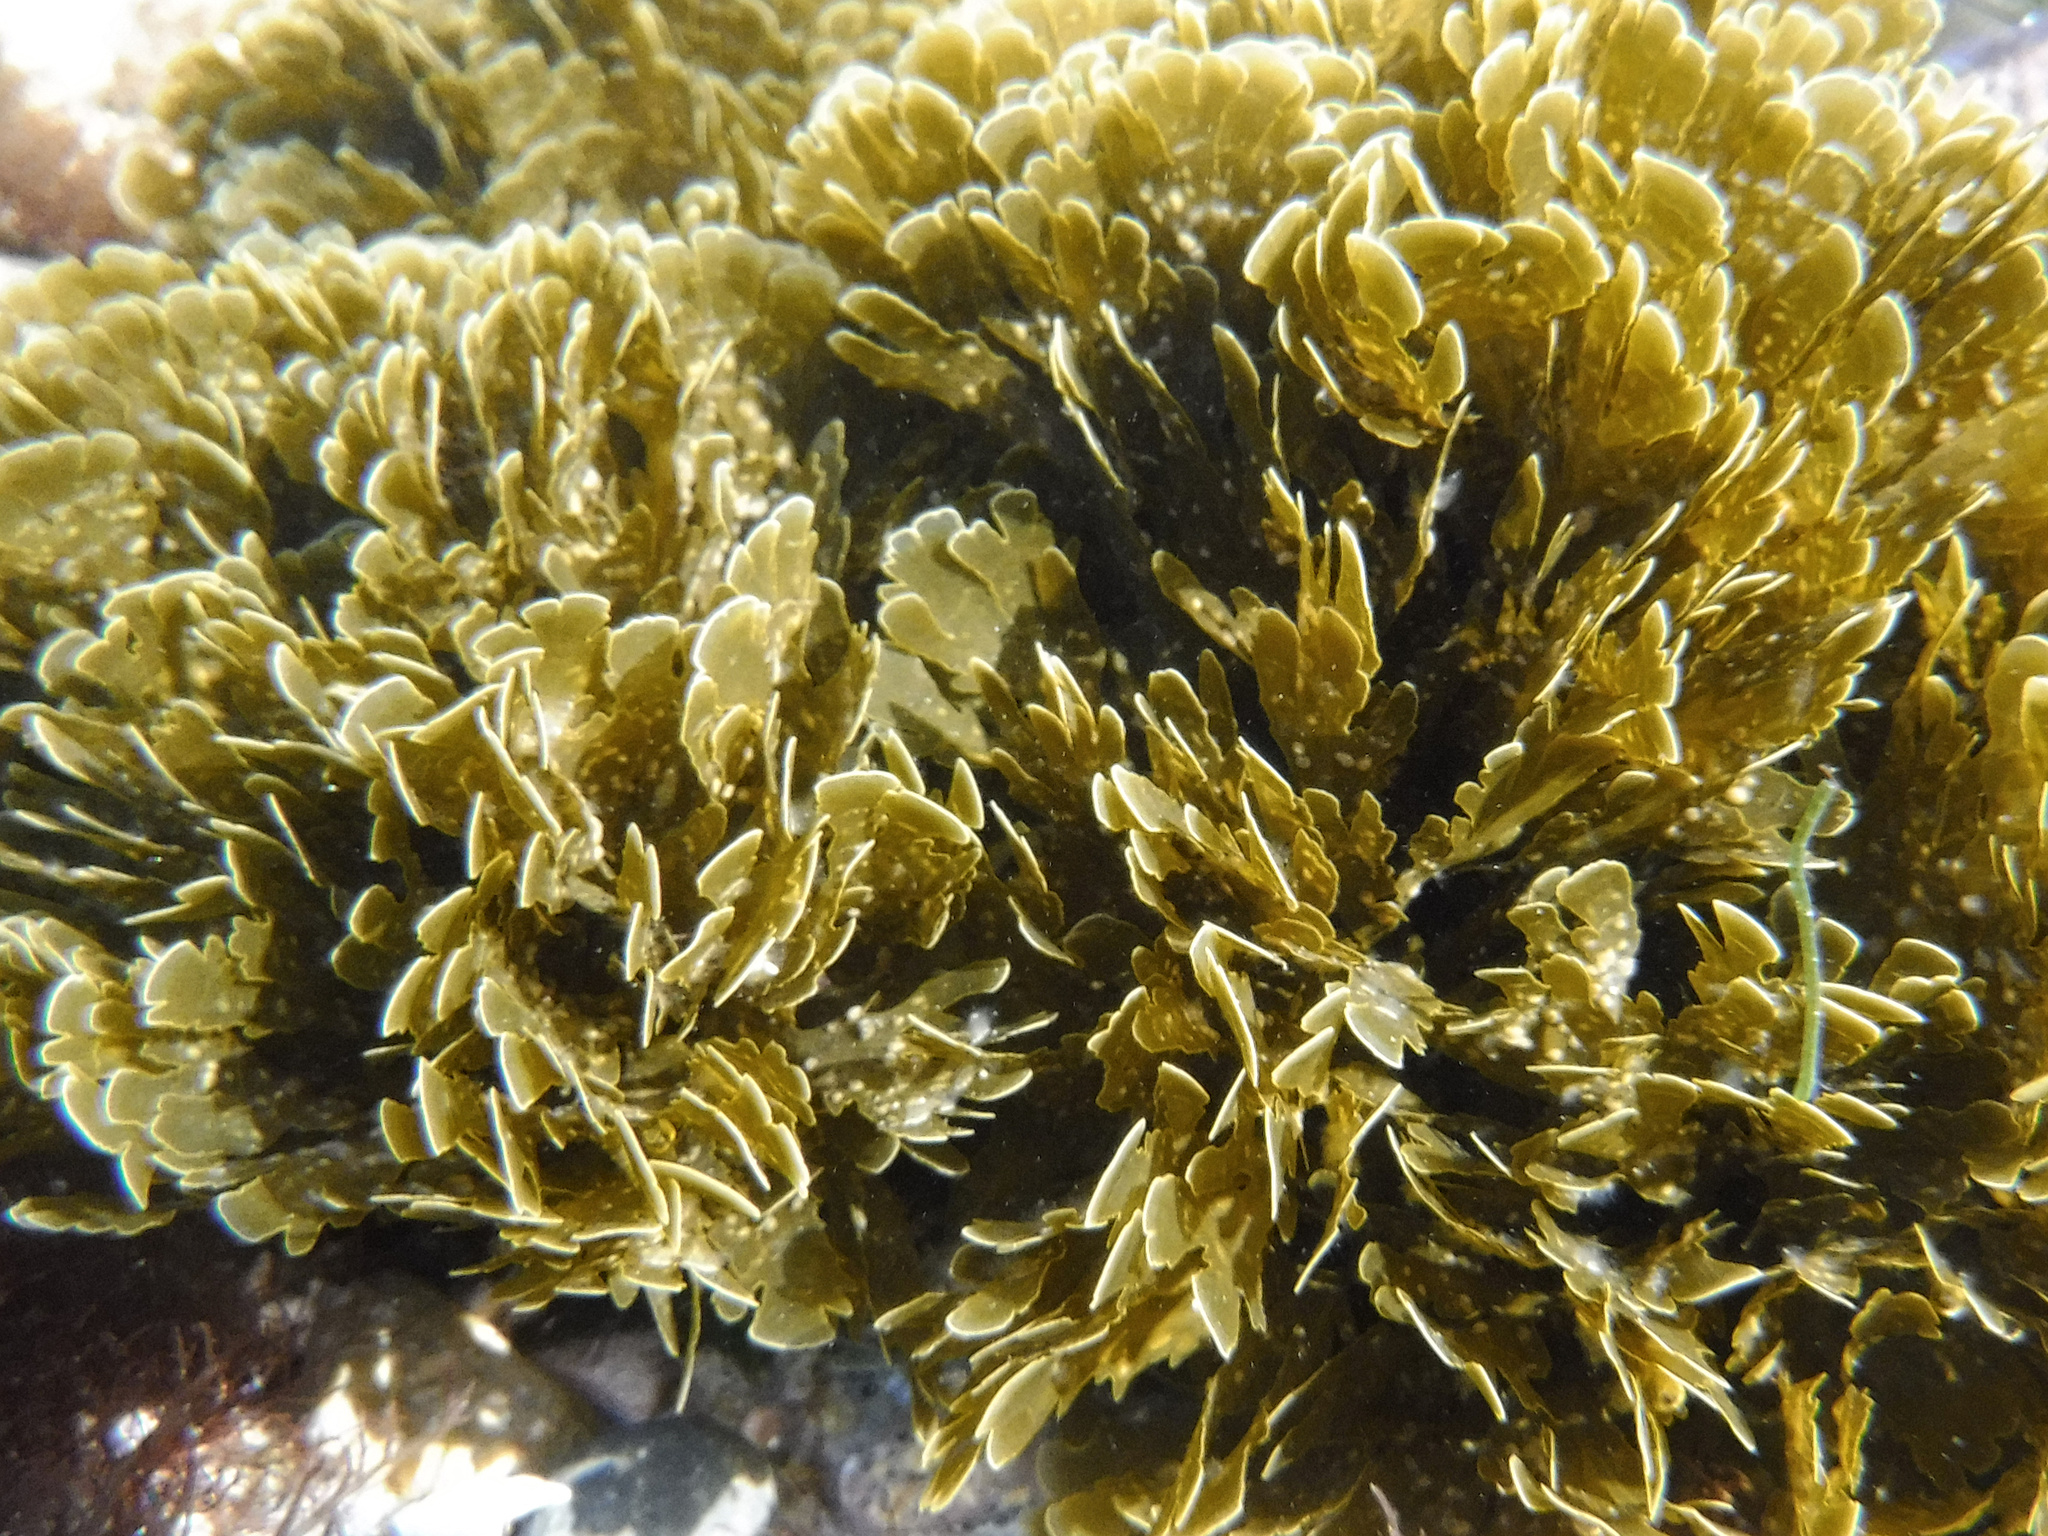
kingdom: Chromista
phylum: Ochrophyta
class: Phaeophyceae
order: Dictyotales
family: Dictyotaceae
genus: Zonaria
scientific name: Zonaria farlowii
